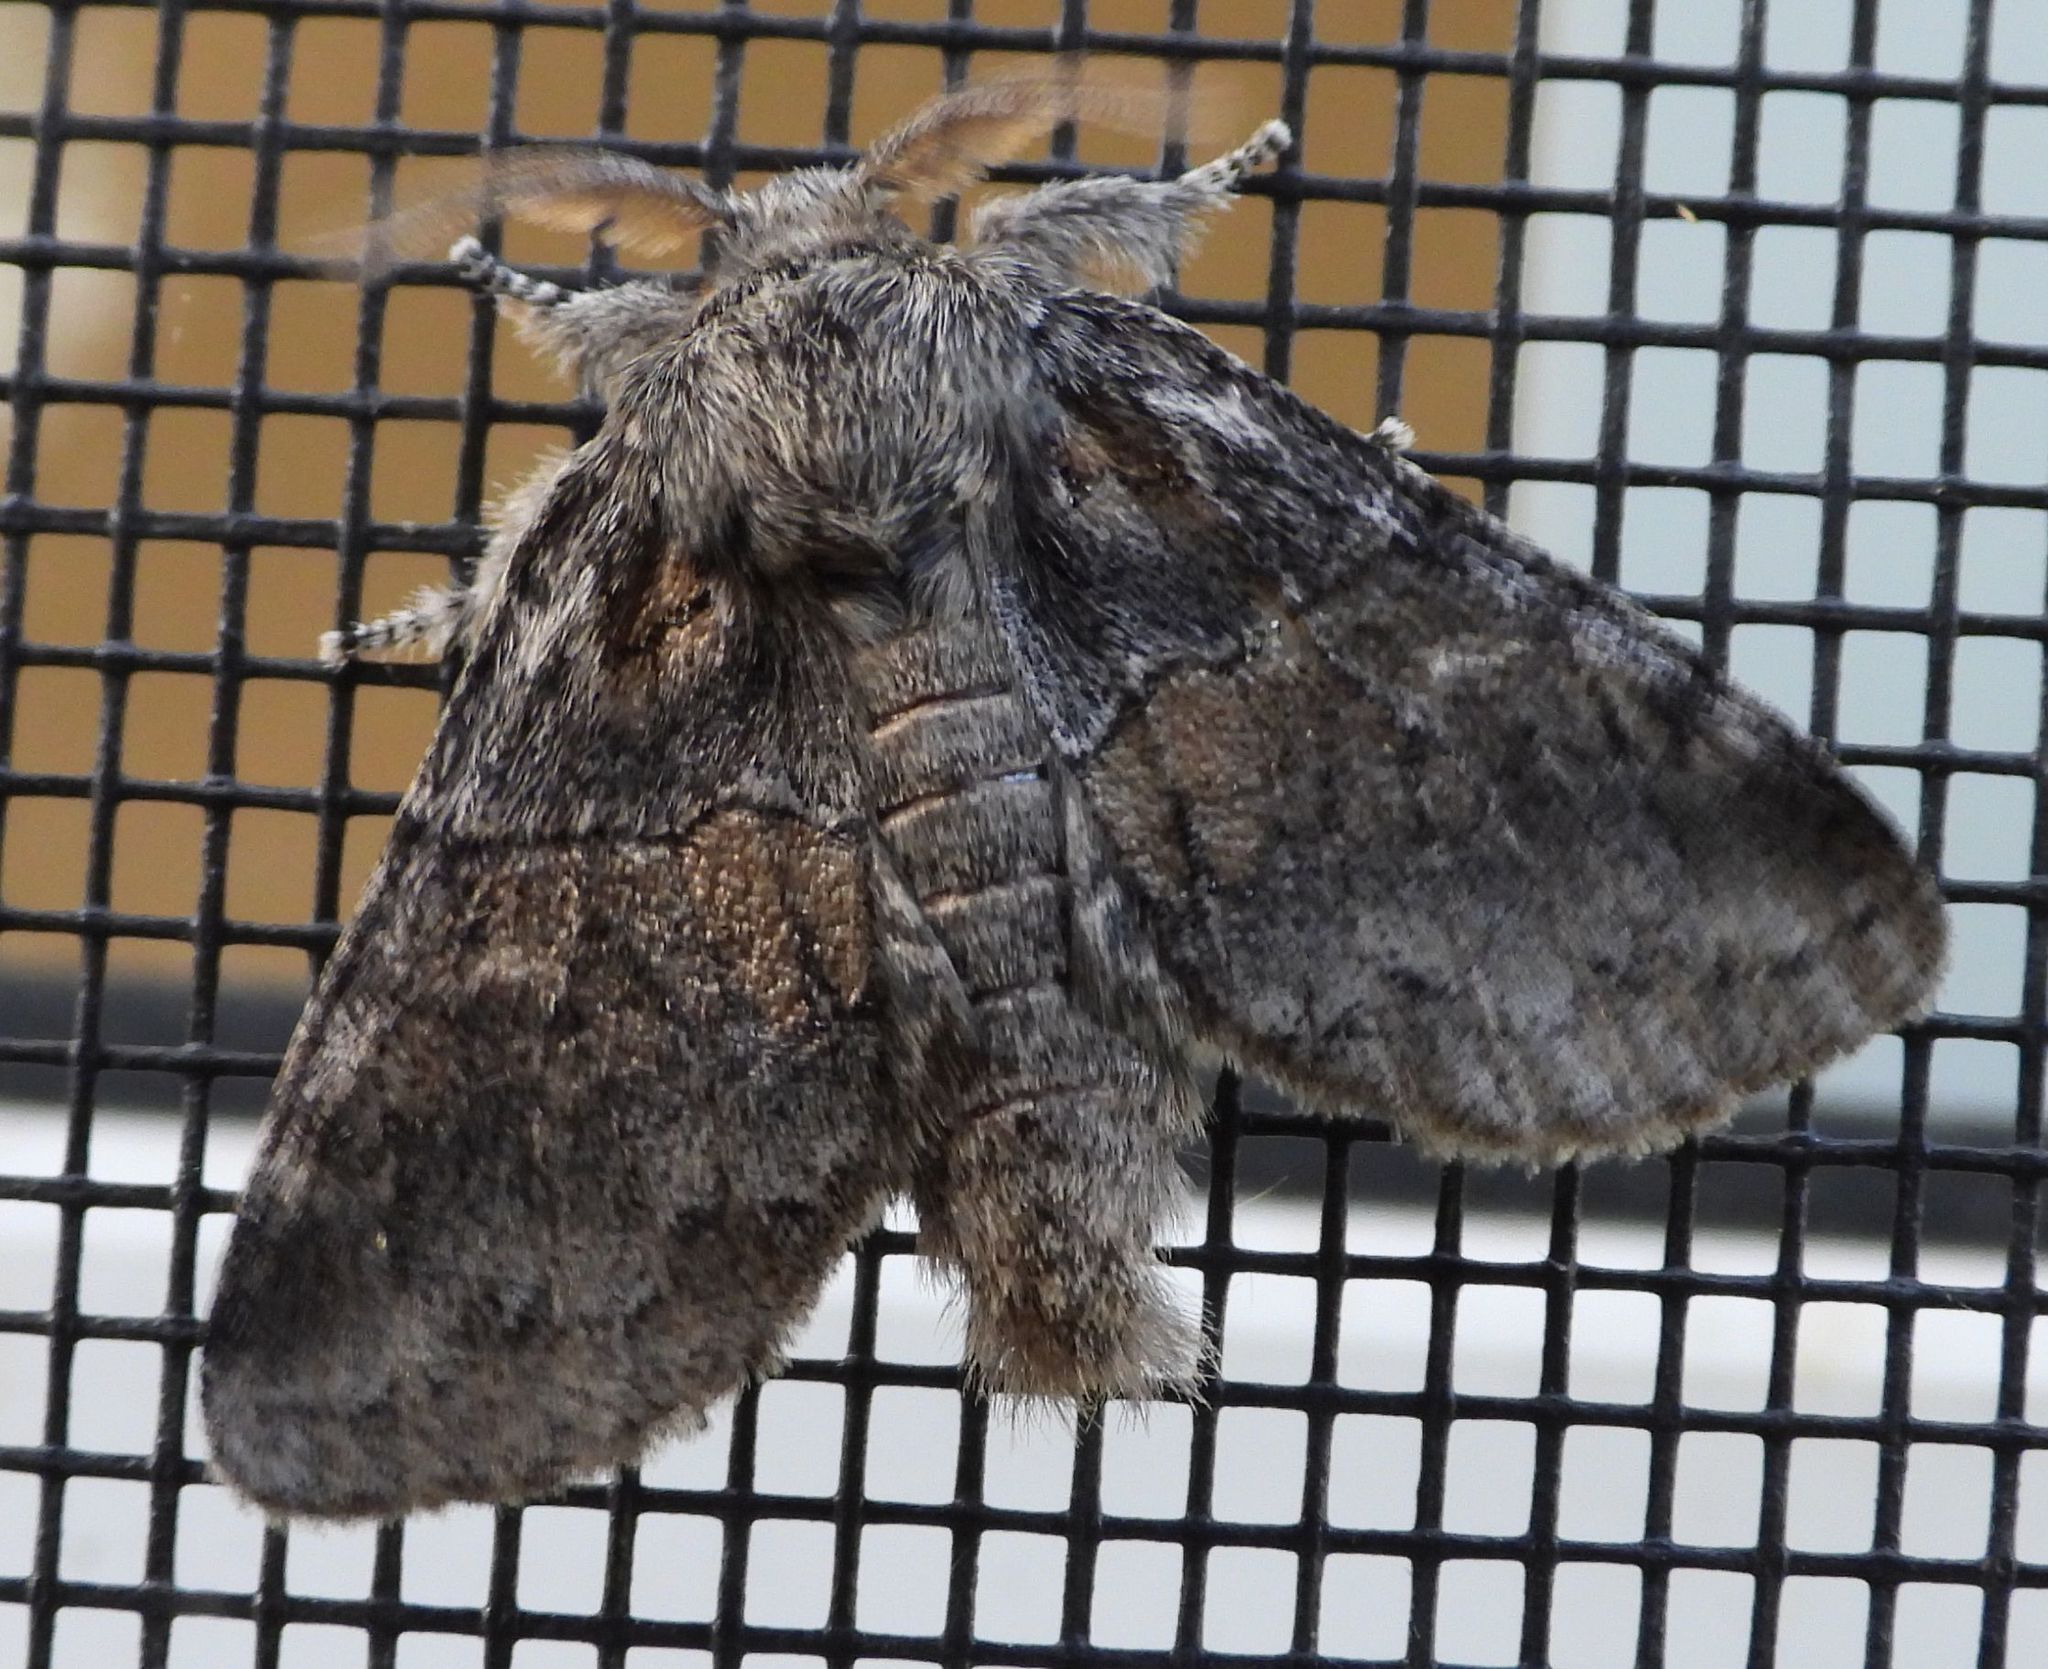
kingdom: Animalia
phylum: Arthropoda
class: Insecta
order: Lepidoptera
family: Notodontidae
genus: Gluphisia
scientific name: Gluphisia septentrionis
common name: Common gluphisia
